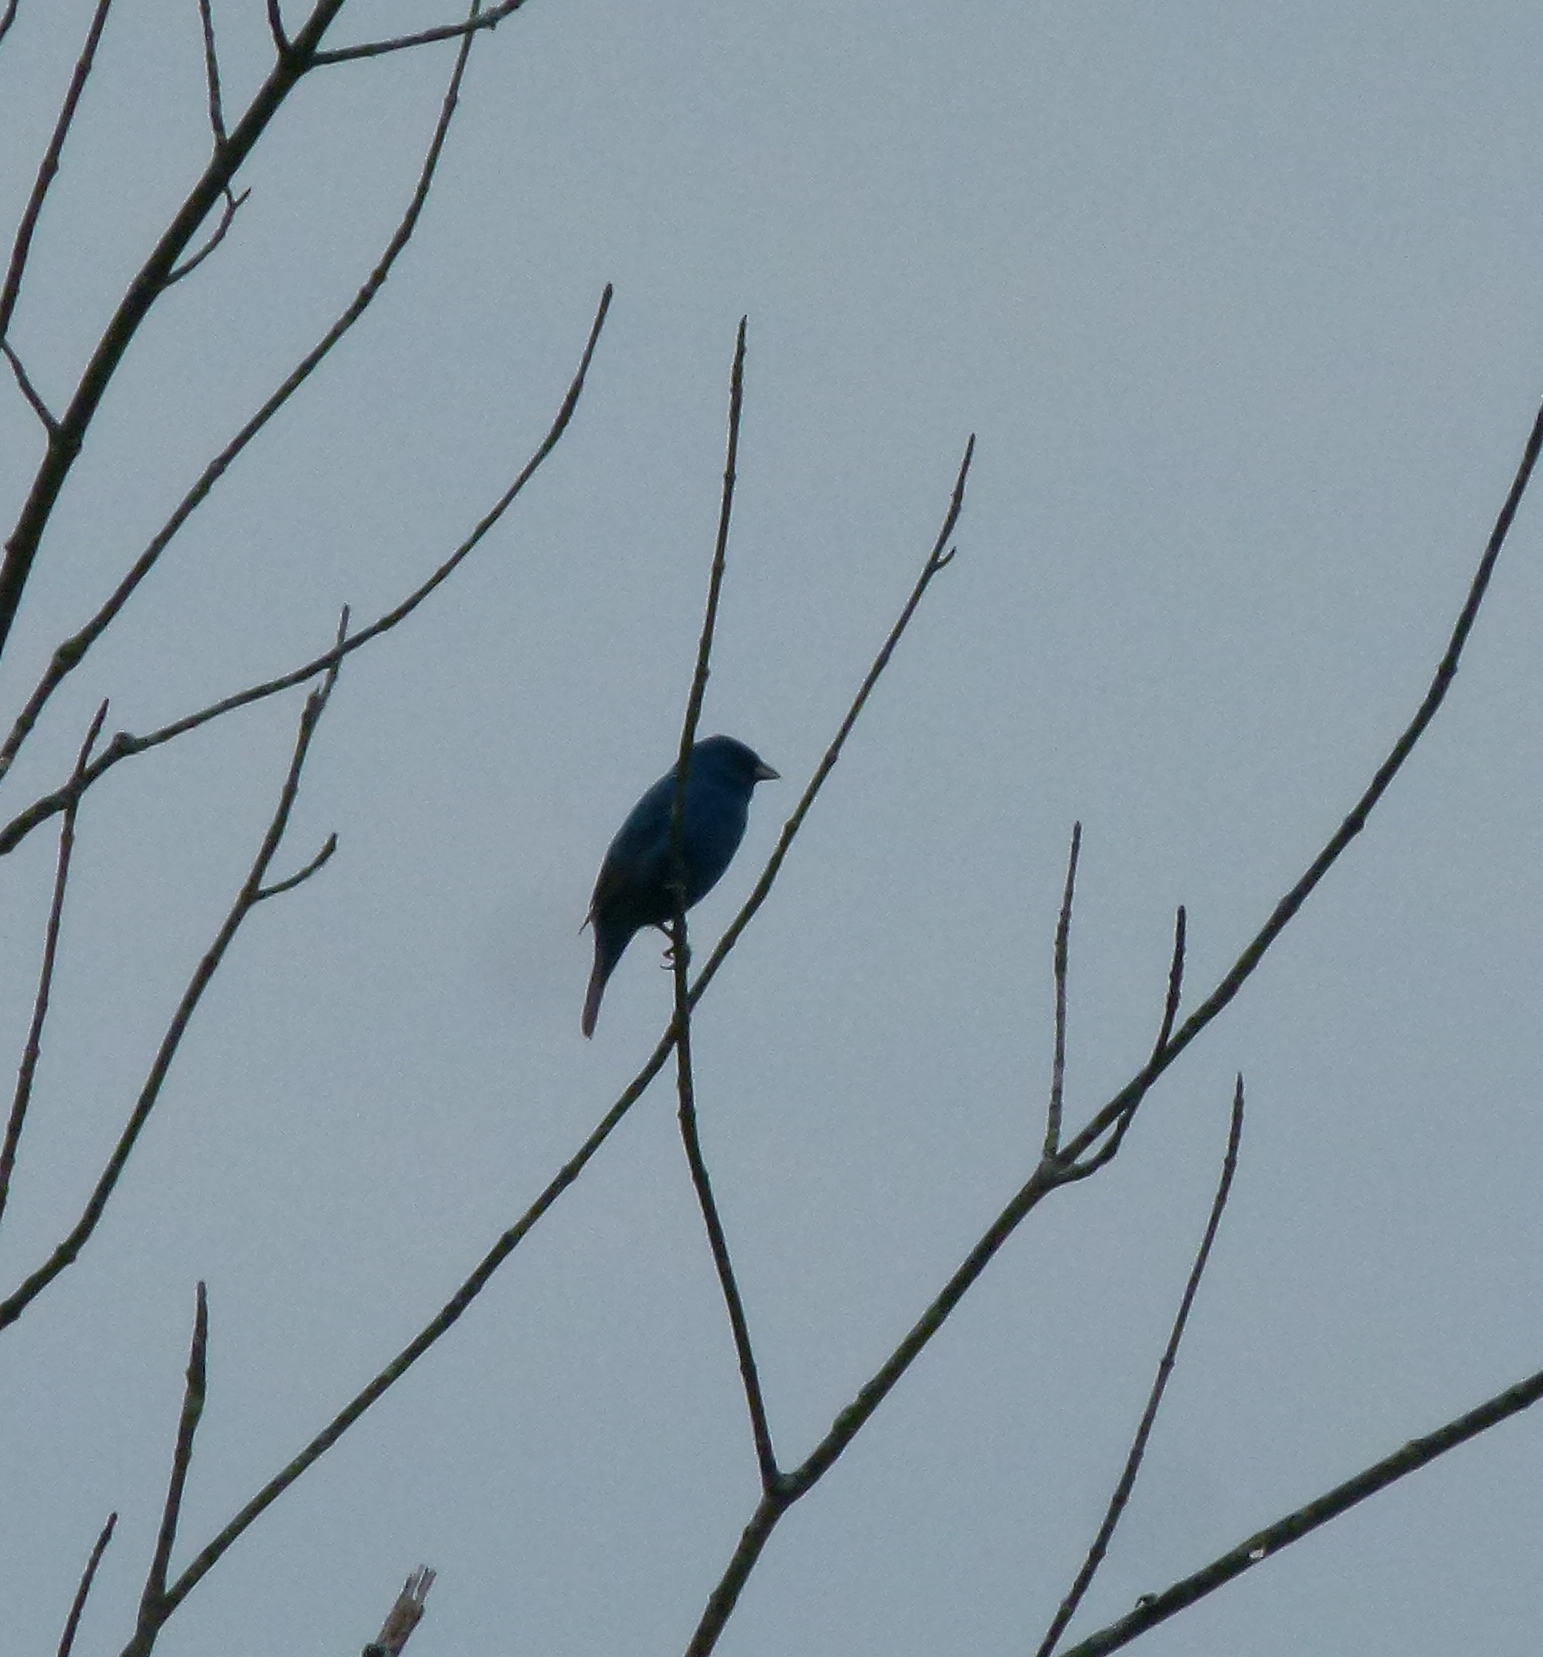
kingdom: Animalia
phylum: Chordata
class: Aves
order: Passeriformes
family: Cardinalidae
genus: Passerina
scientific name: Passerina cyanea
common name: Indigo bunting
